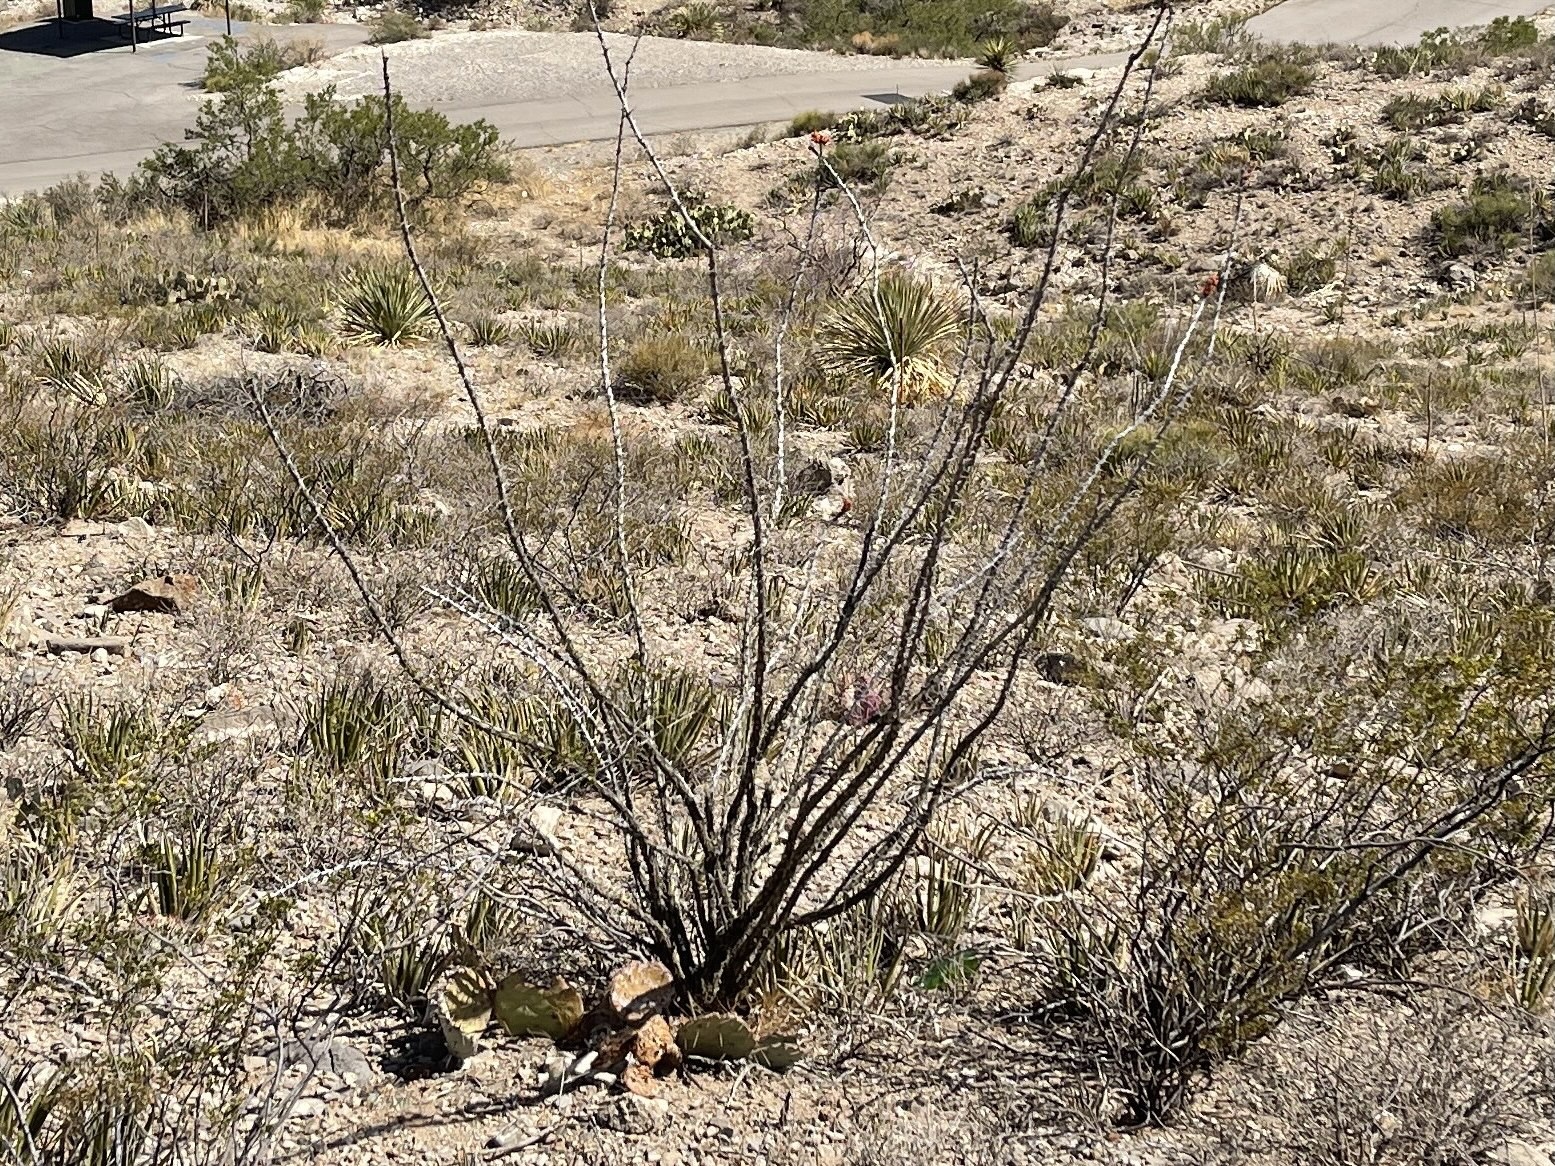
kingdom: Plantae
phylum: Tracheophyta
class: Magnoliopsida
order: Ericales
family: Fouquieriaceae
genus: Fouquieria
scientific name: Fouquieria splendens
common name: Vine-cactus
